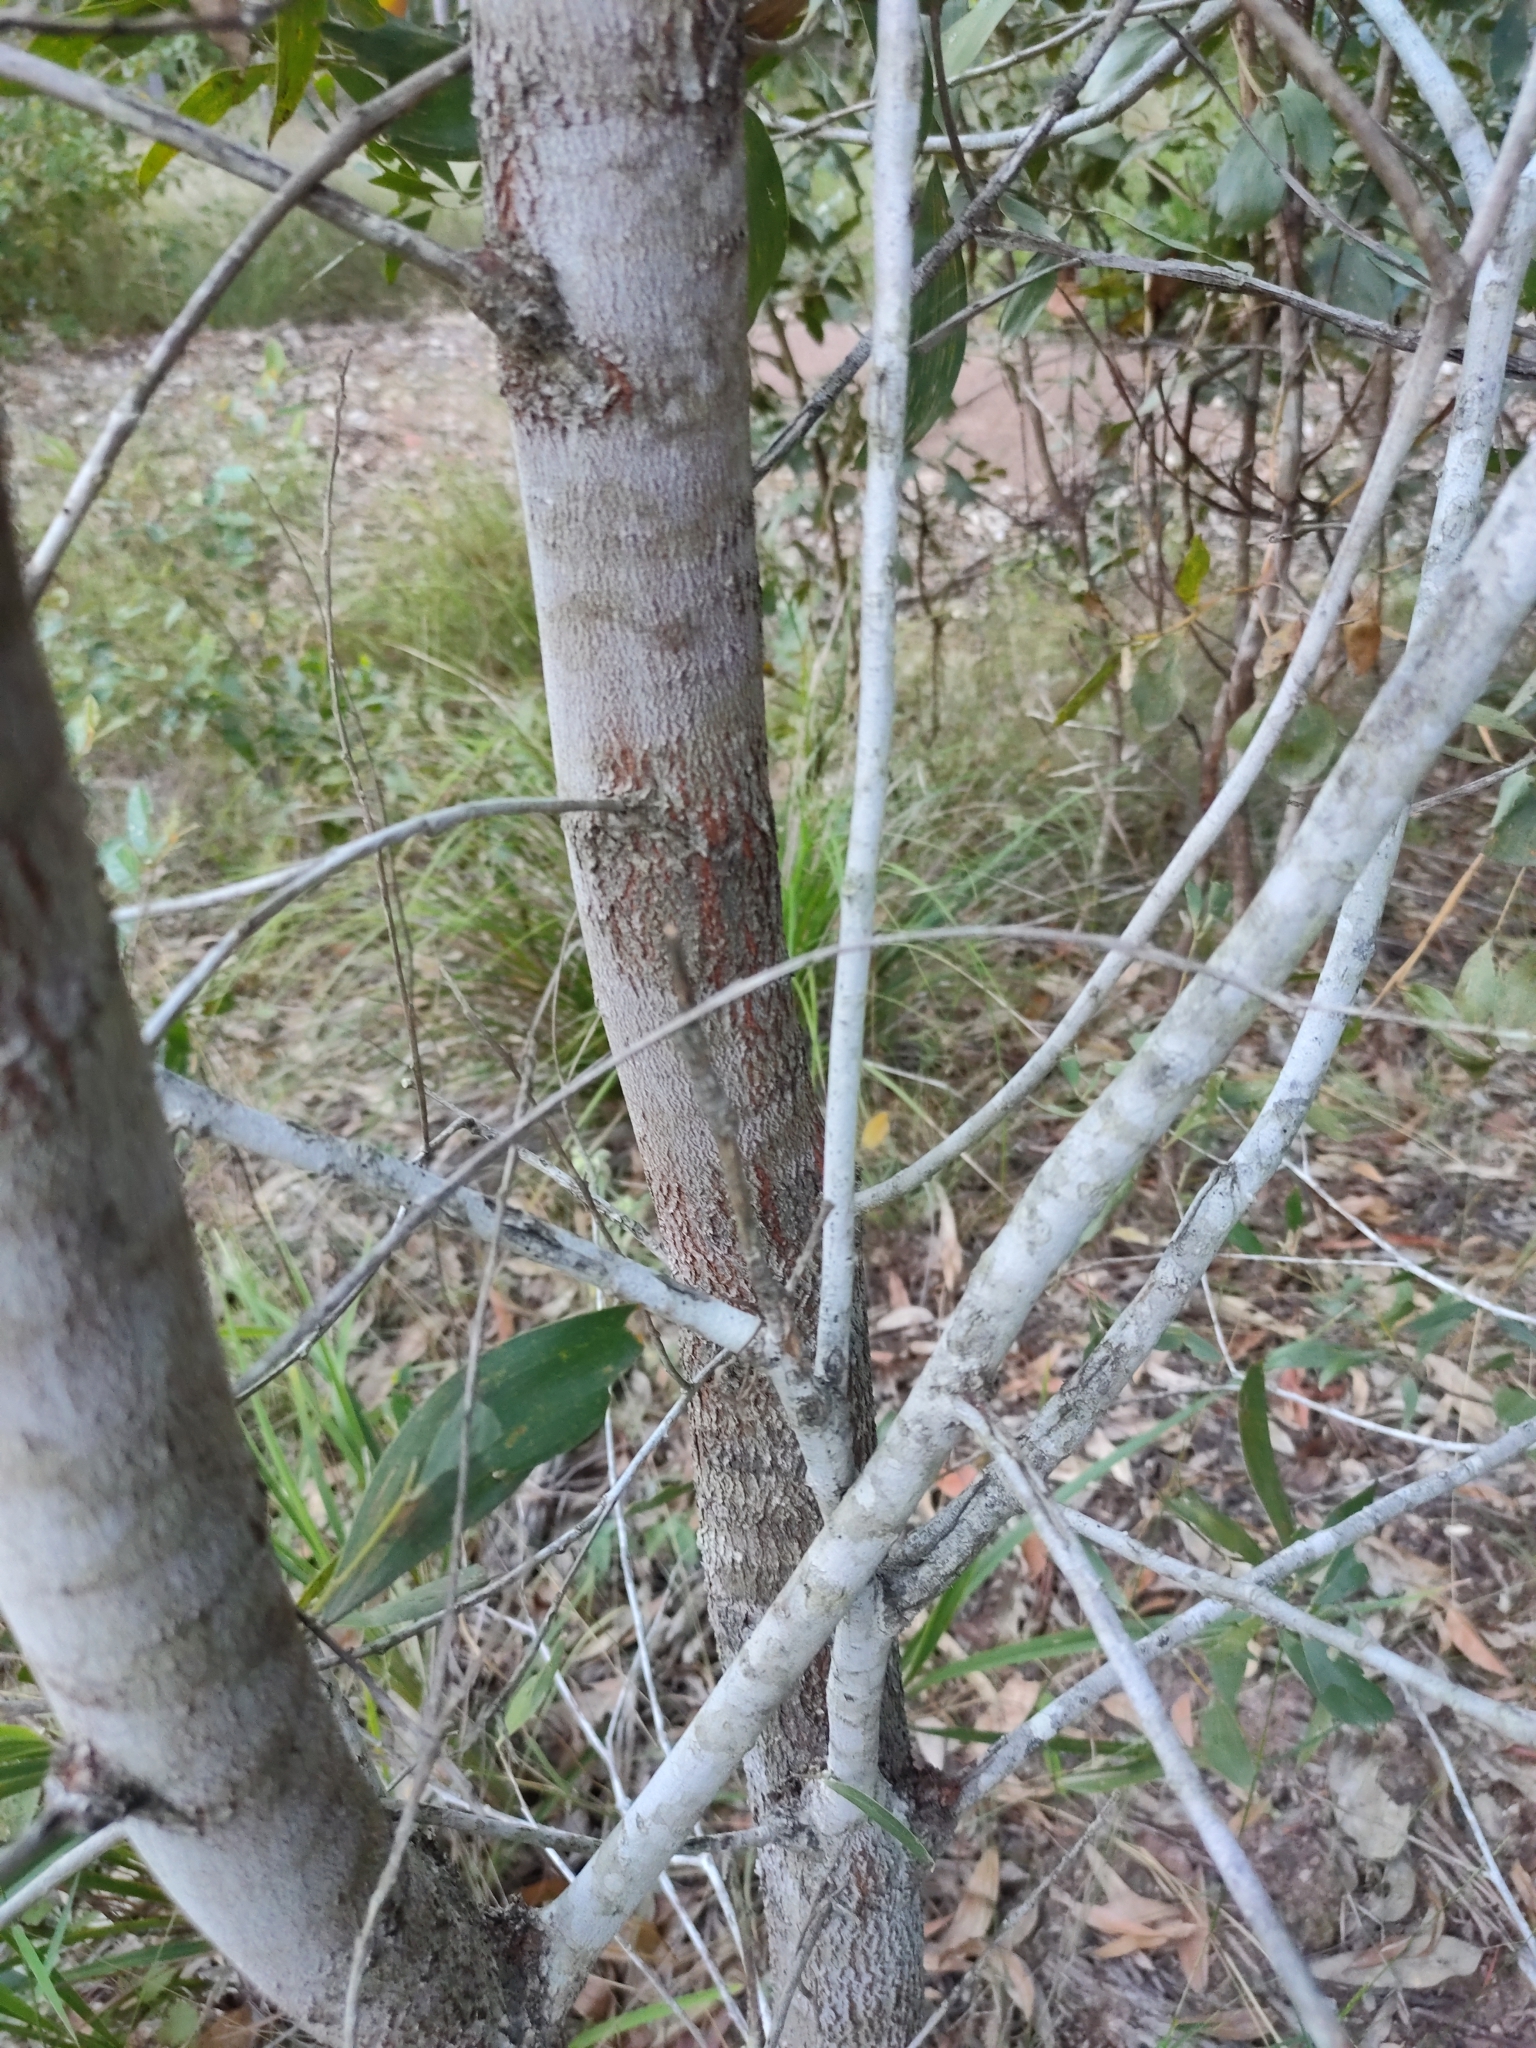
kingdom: Plantae
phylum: Tracheophyta
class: Magnoliopsida
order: Fabales
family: Fabaceae
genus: Acacia
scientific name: Acacia disparrima
